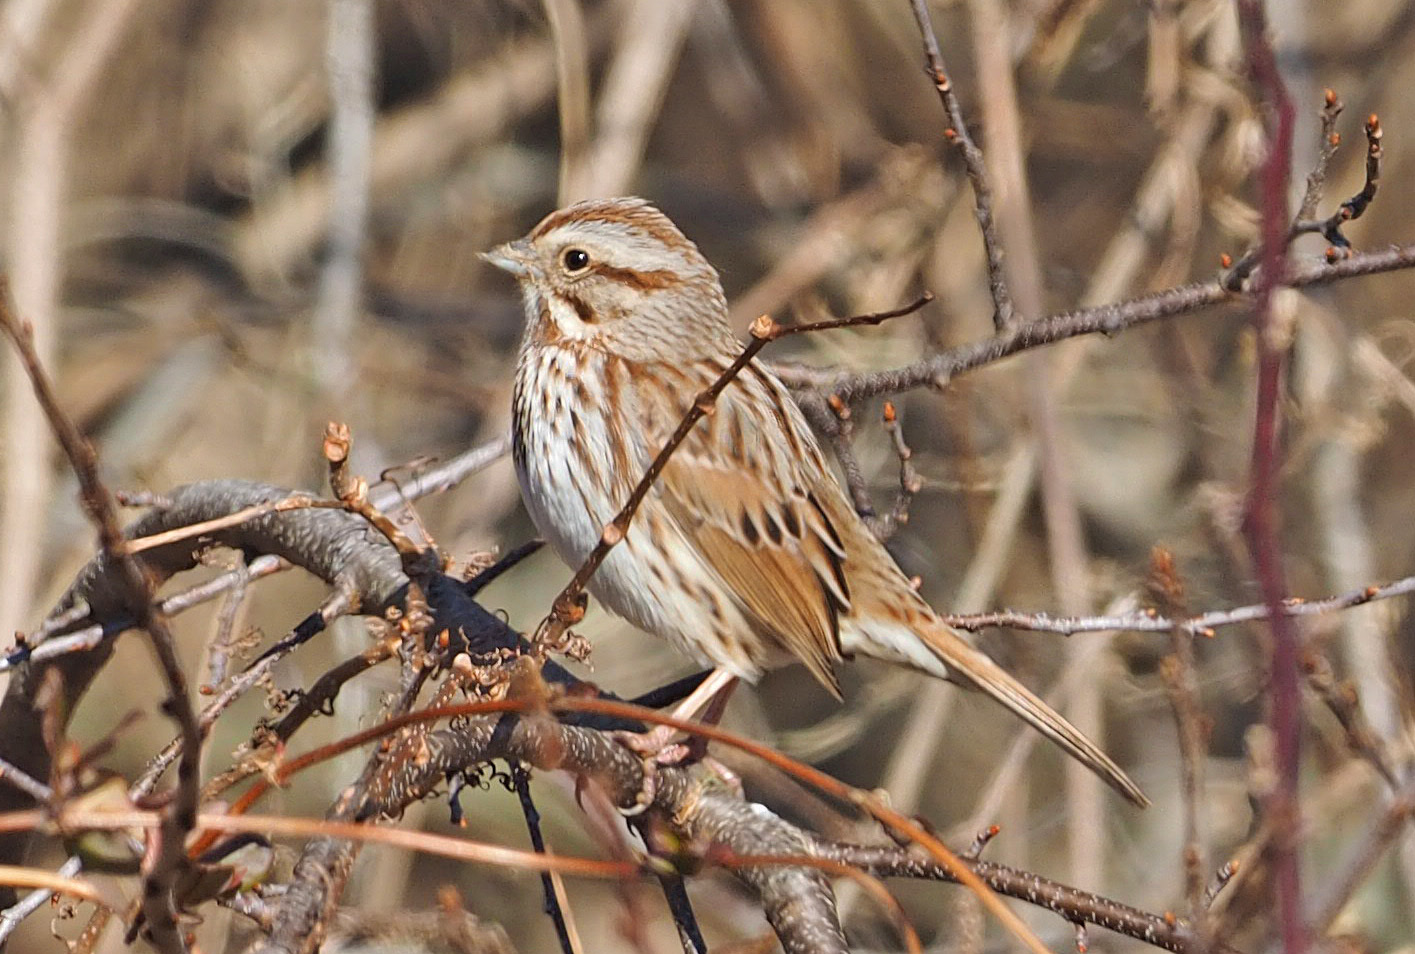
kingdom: Animalia
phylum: Chordata
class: Aves
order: Passeriformes
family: Passerellidae
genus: Melospiza
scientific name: Melospiza melodia
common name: Song sparrow
